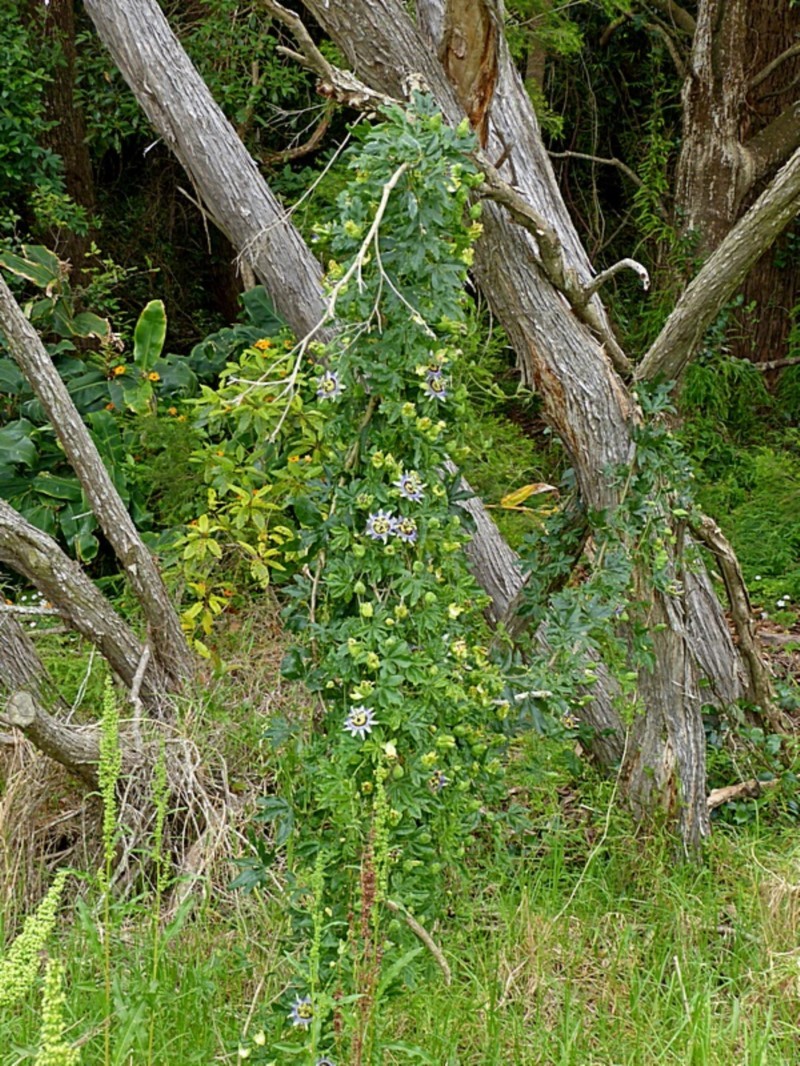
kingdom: Plantae
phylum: Tracheophyta
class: Magnoliopsida
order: Malpighiales
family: Passifloraceae
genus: Passiflora
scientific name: Passiflora caerulea
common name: Blue passionflower
